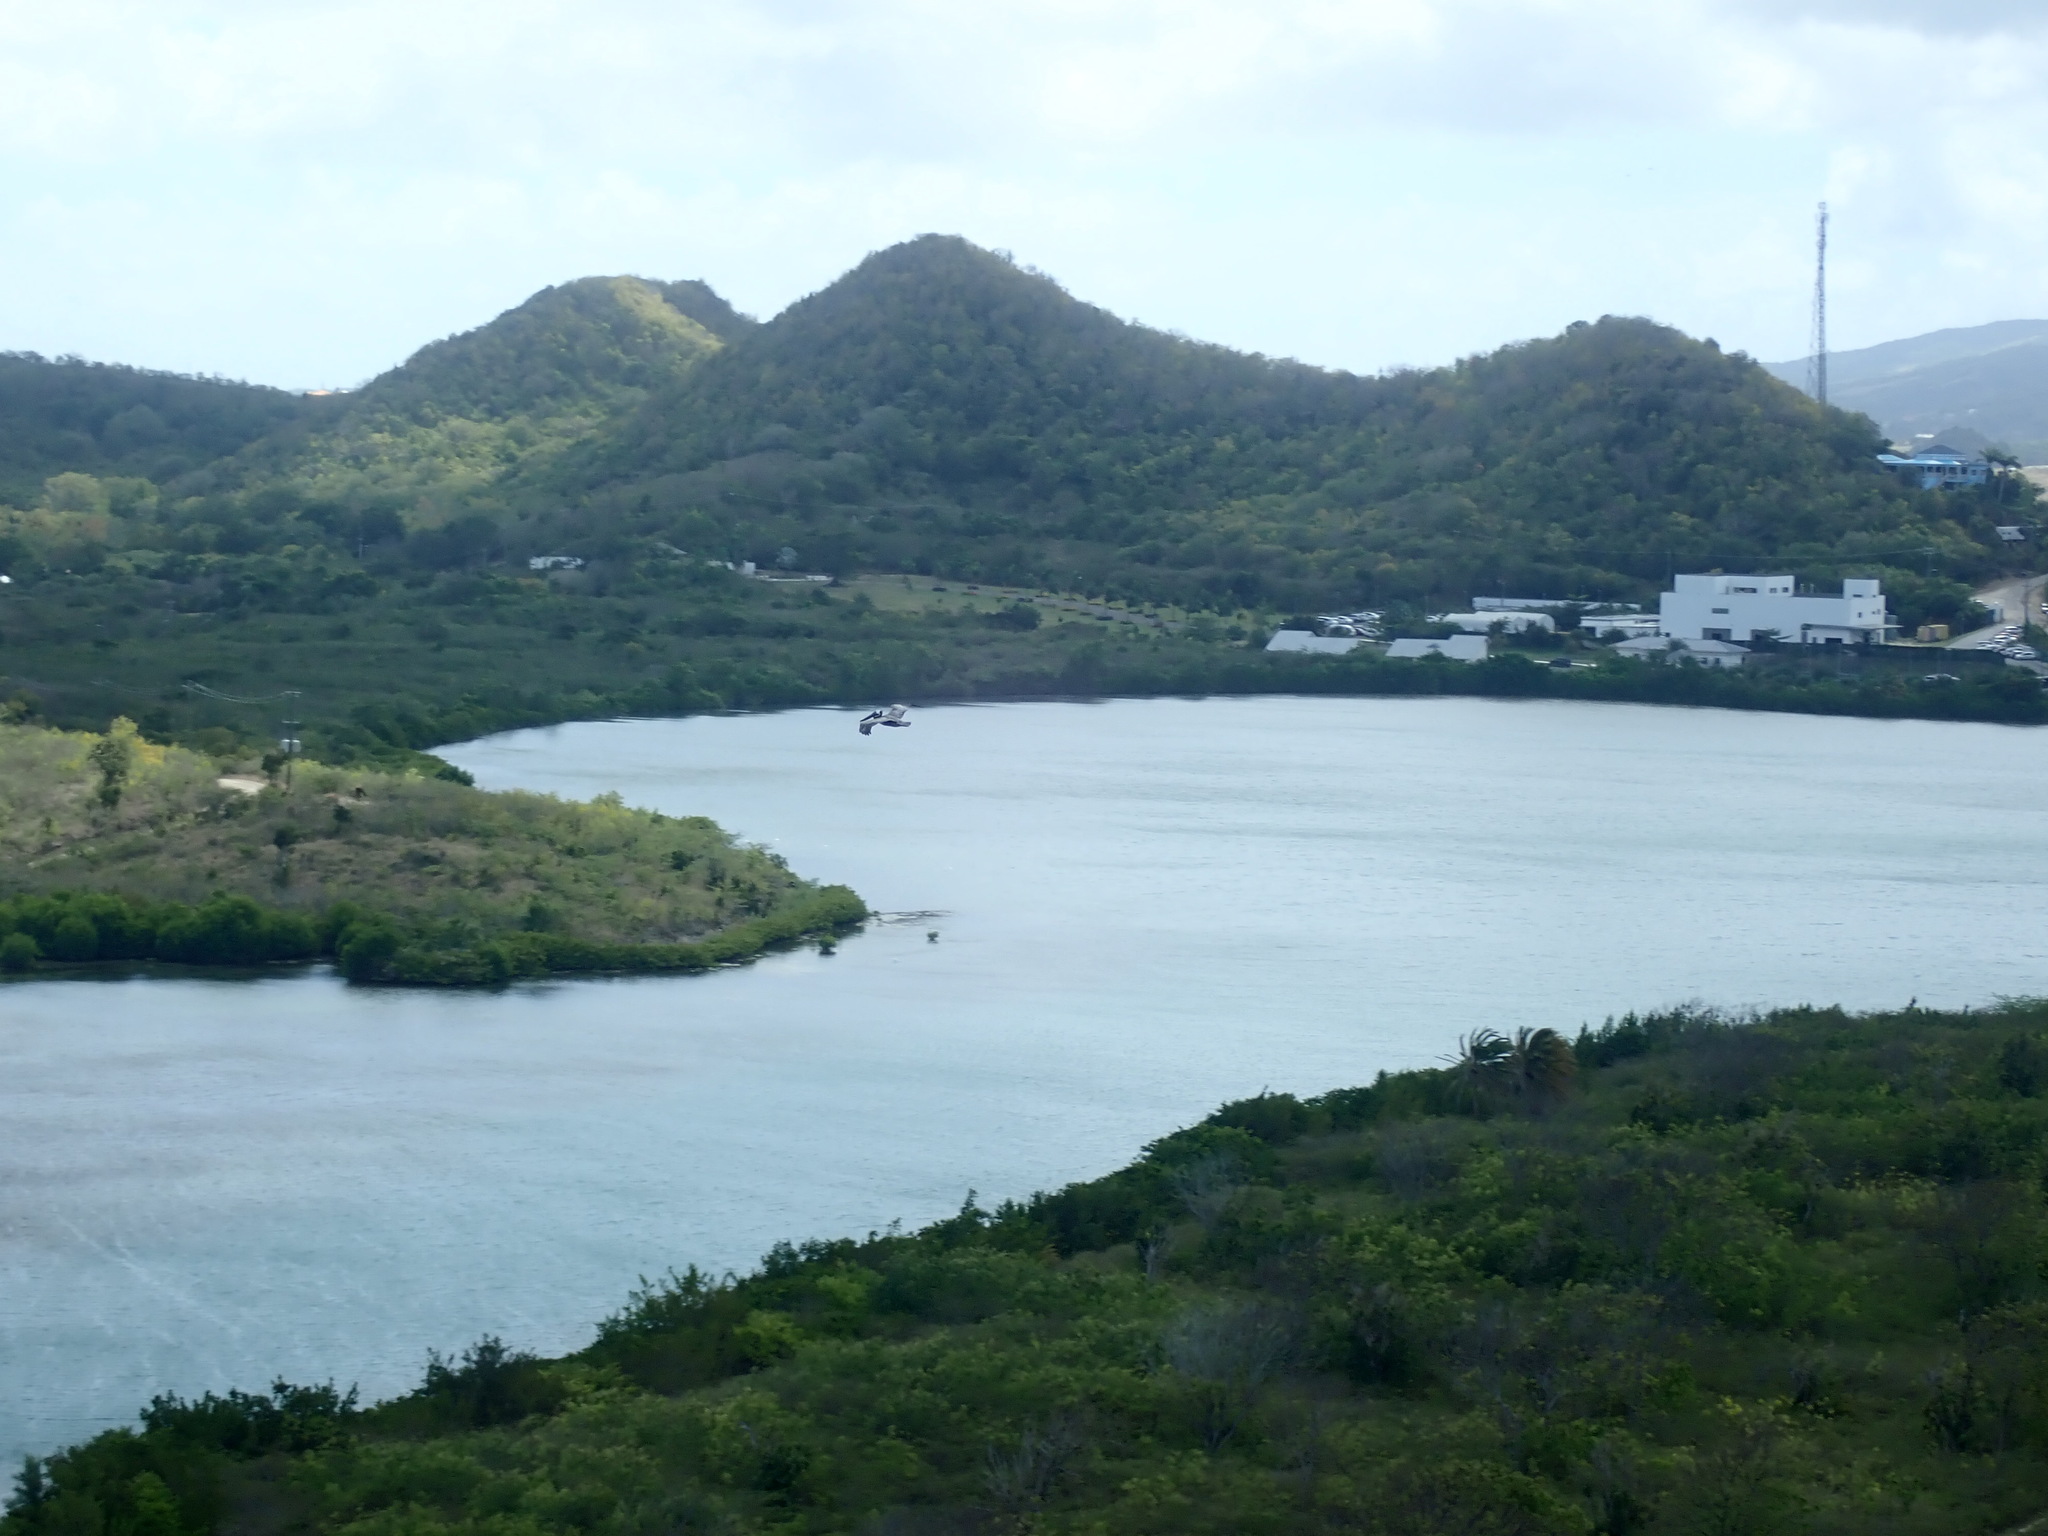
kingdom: Animalia
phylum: Chordata
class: Aves
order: Pelecaniformes
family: Pelecanidae
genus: Pelecanus
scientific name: Pelecanus occidentalis
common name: Brown pelican
